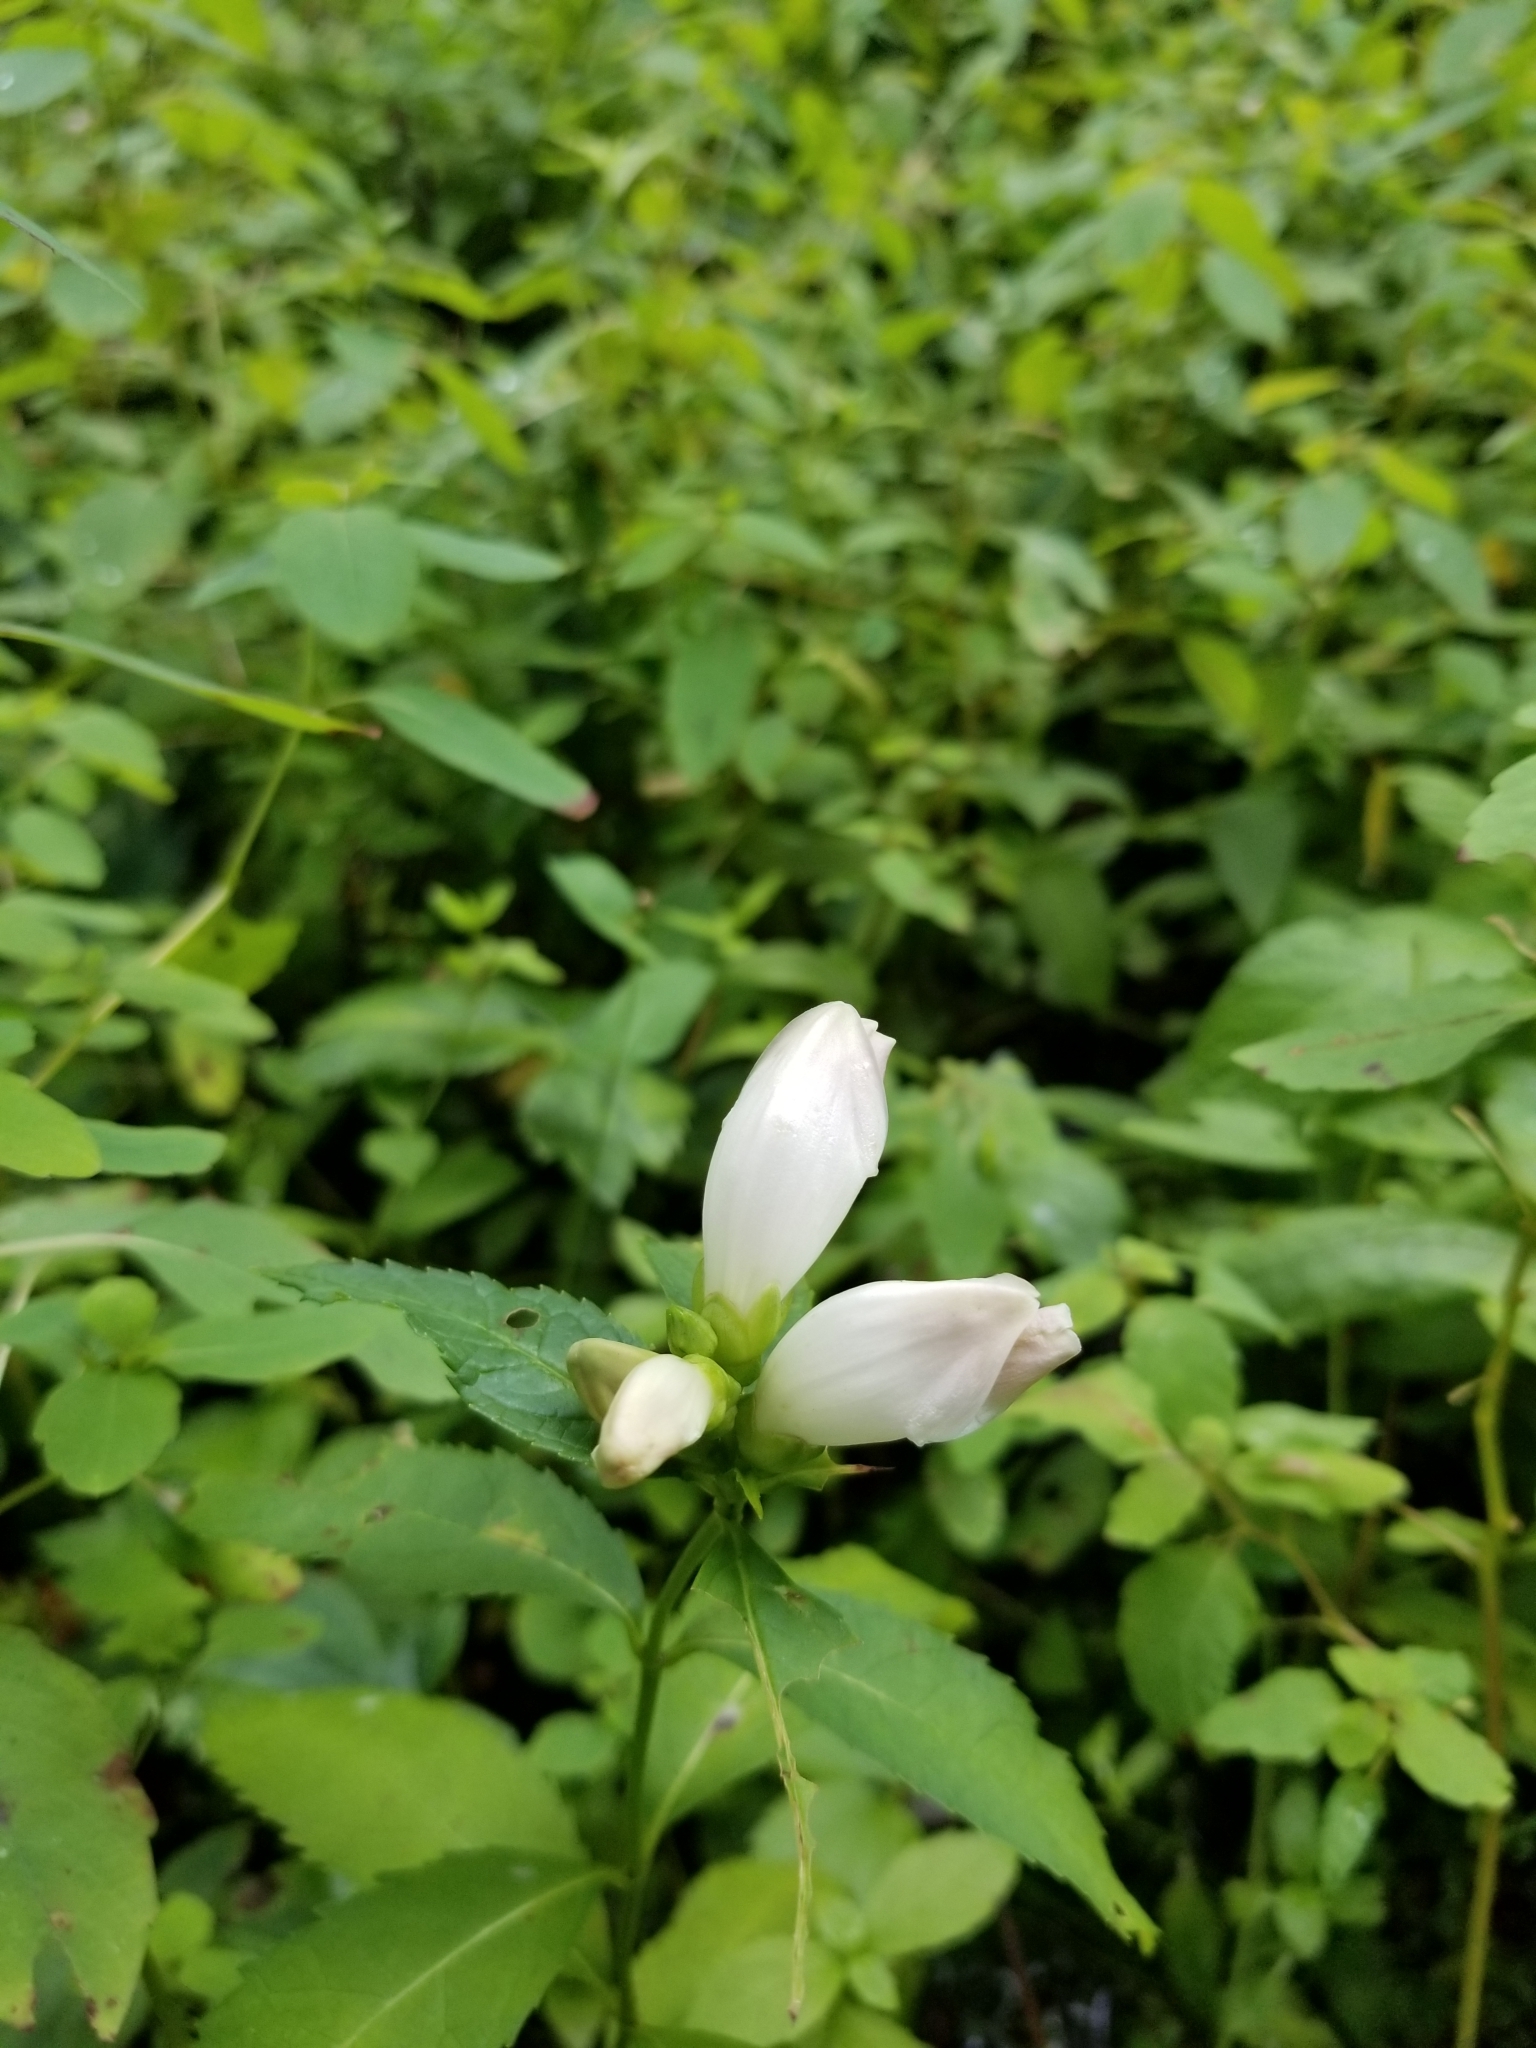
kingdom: Plantae
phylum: Tracheophyta
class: Magnoliopsida
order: Lamiales
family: Plantaginaceae
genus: Chelone
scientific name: Chelone glabra
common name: Snakehead
